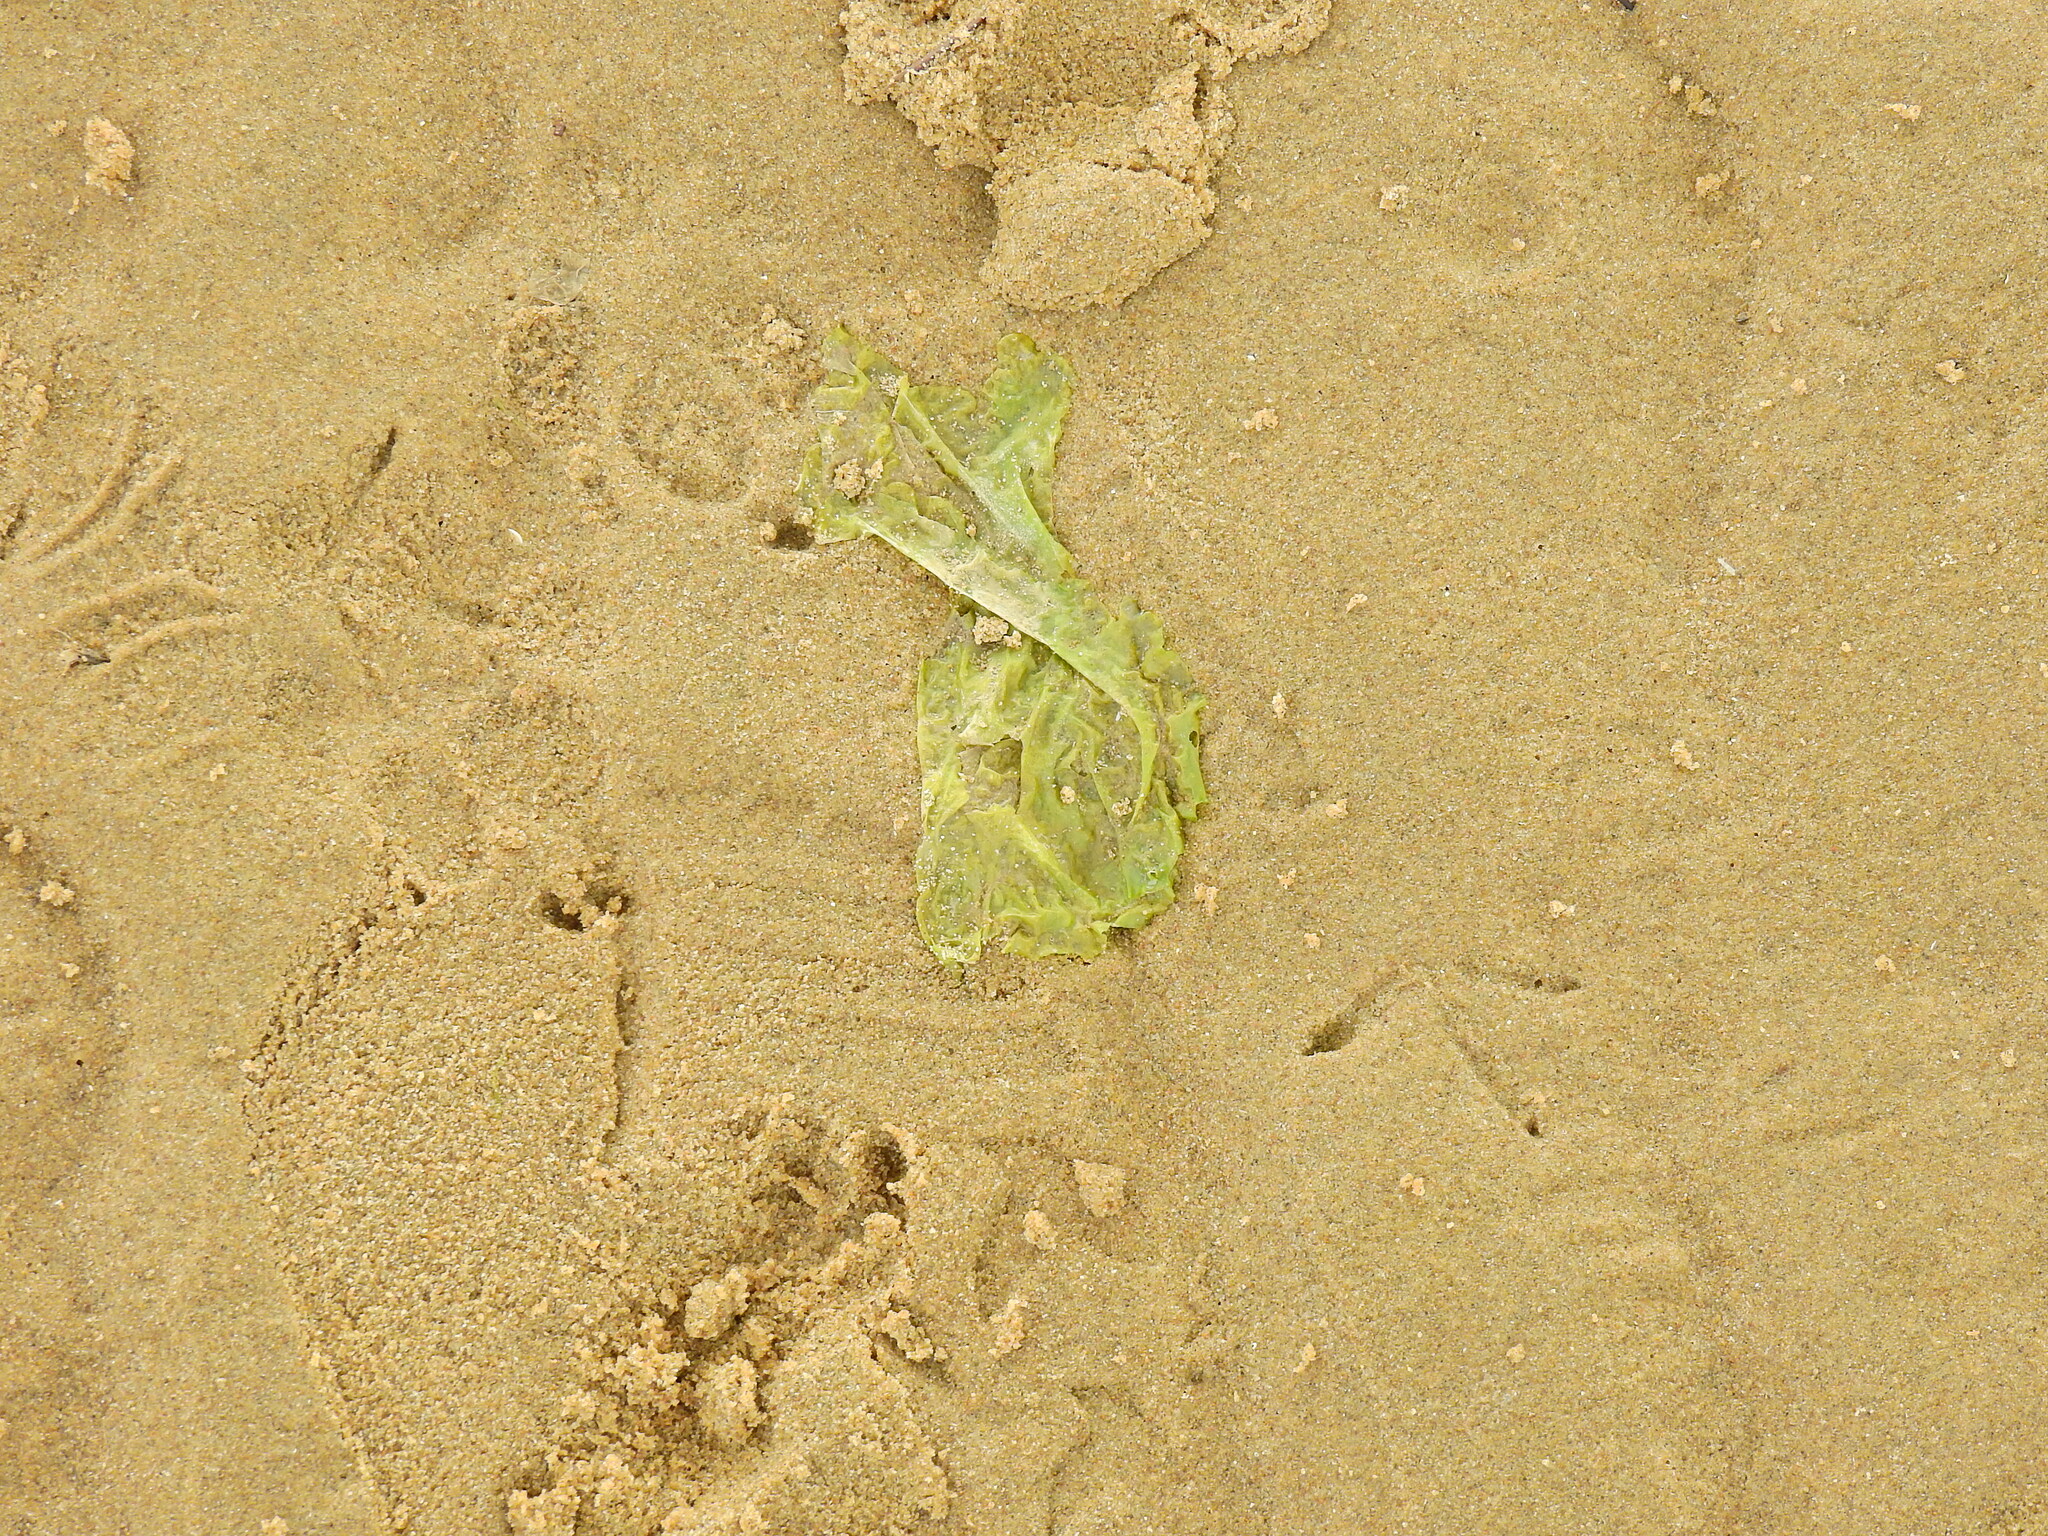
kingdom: Plantae
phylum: Chlorophyta
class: Ulvophyceae
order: Ulvales
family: Ulvaceae
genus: Ulva
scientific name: Ulva lactuca
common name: Sea lettuce
